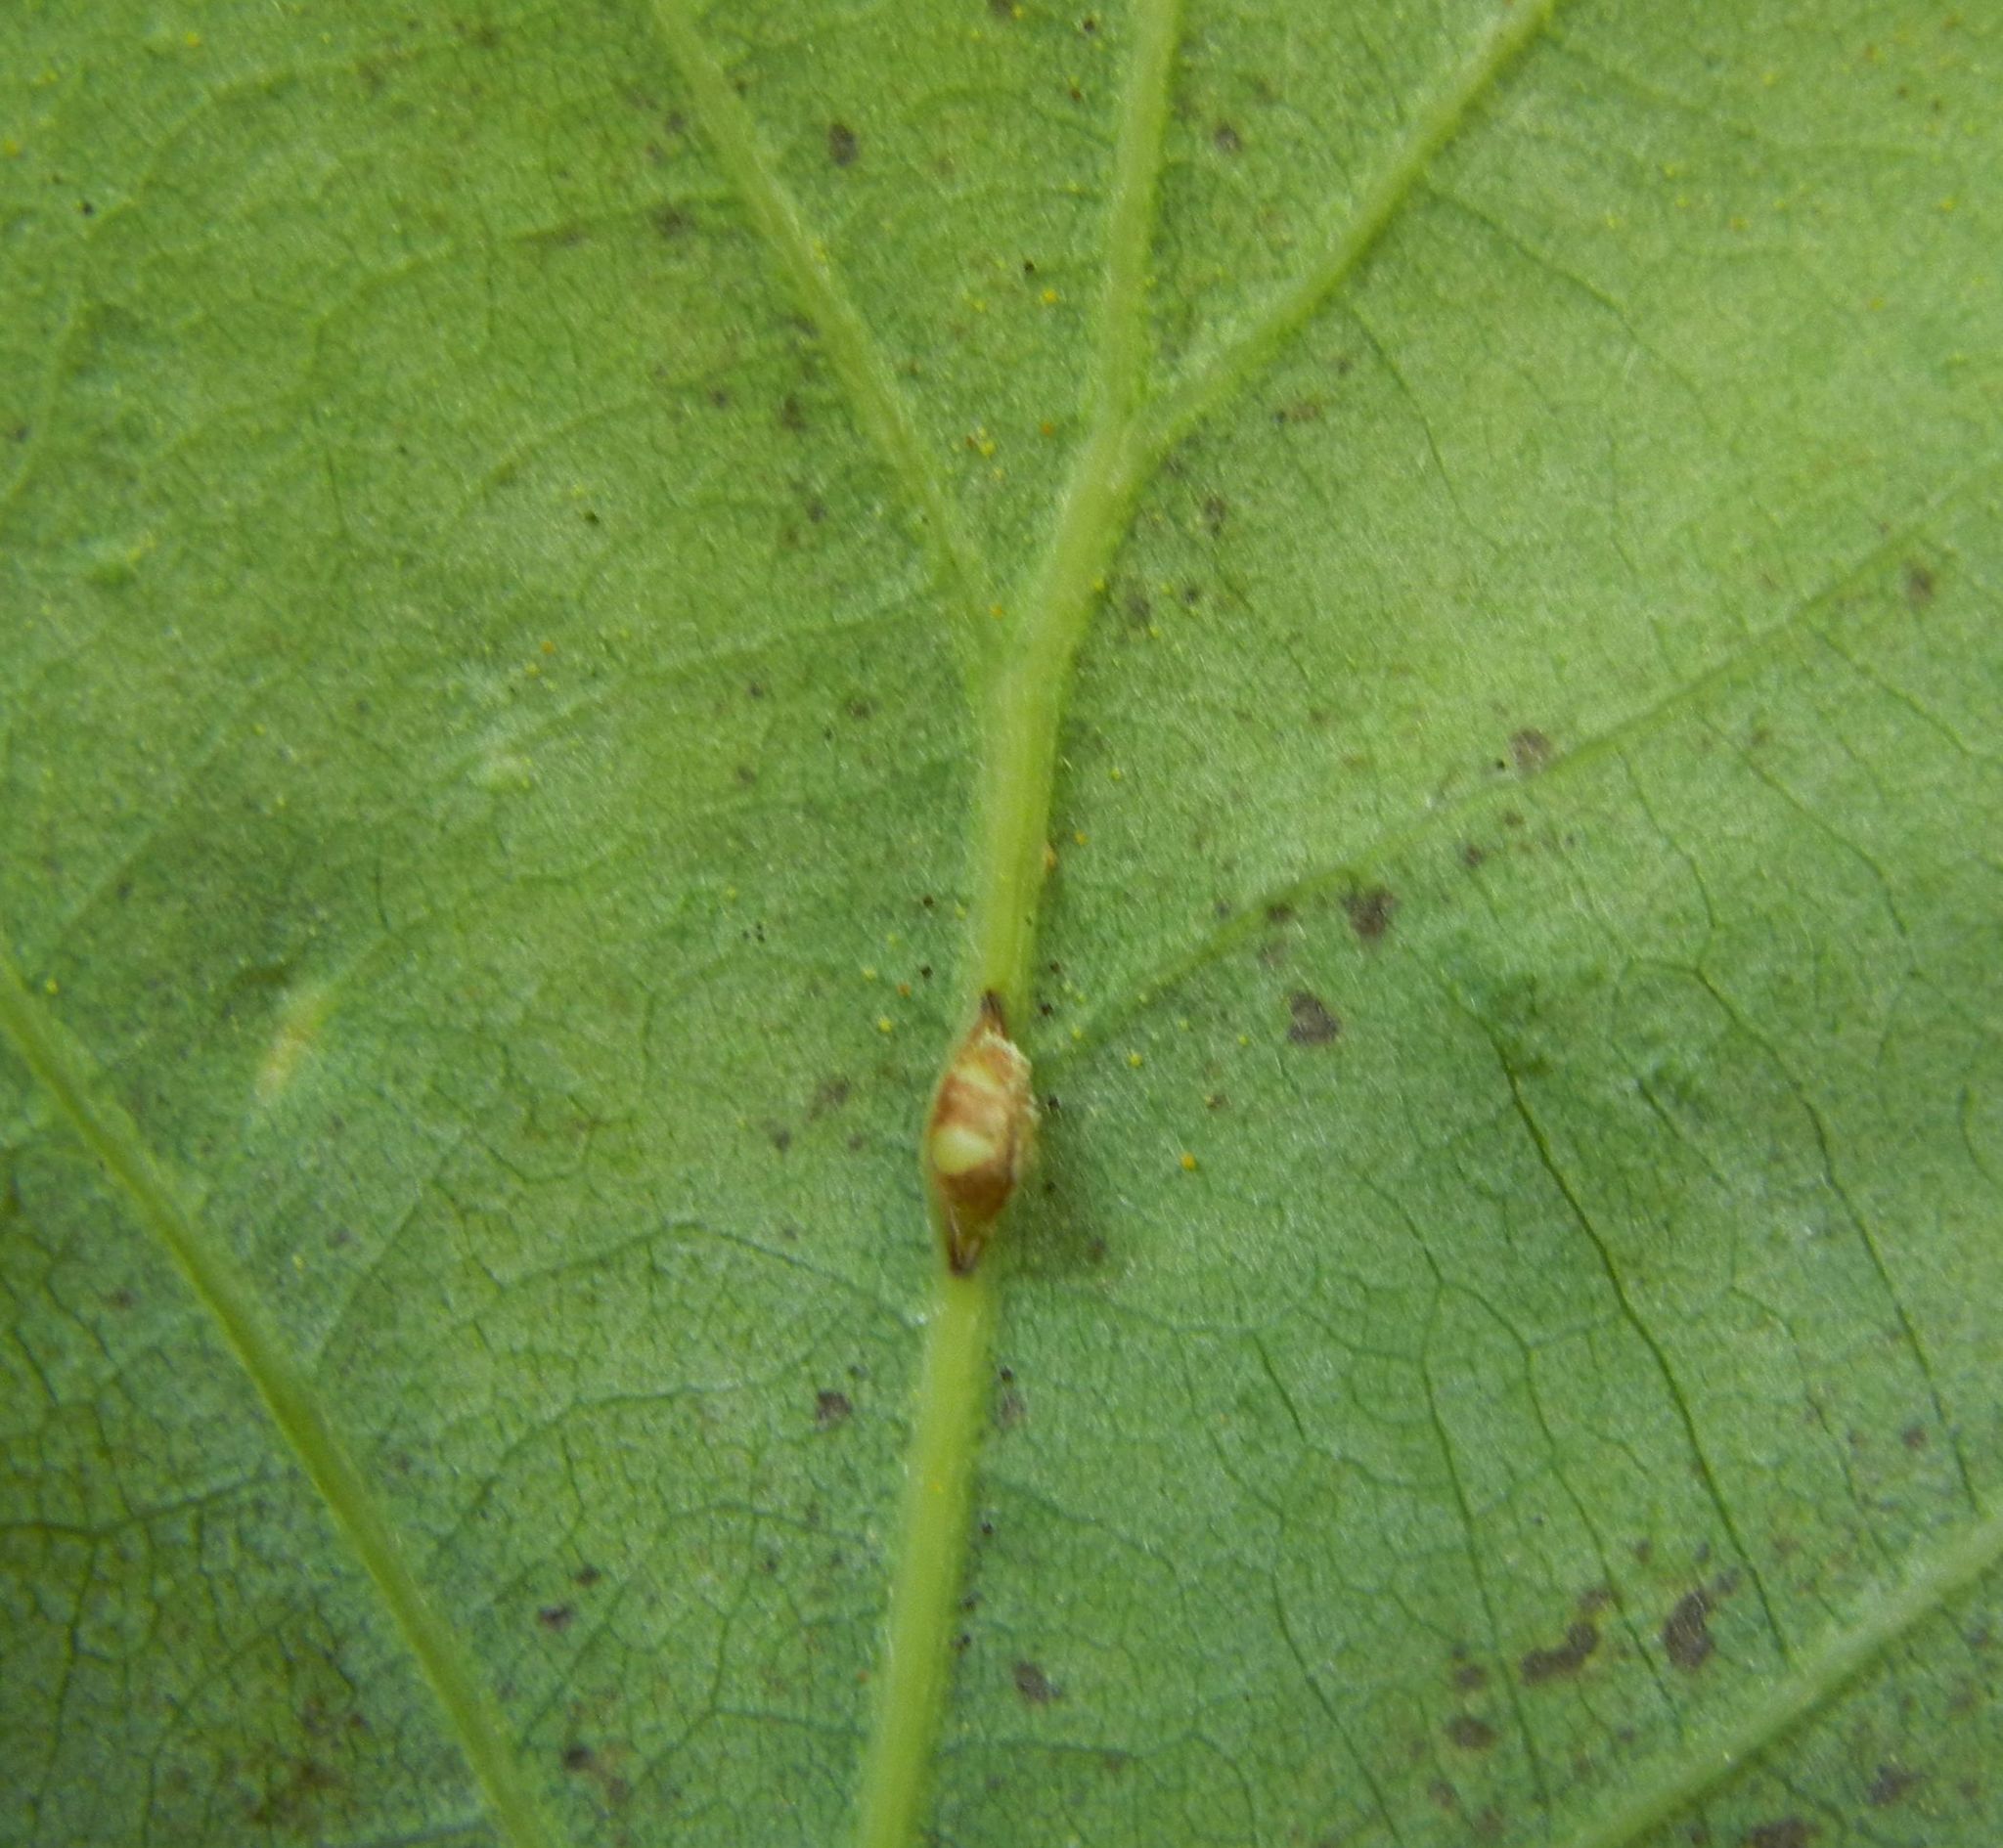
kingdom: Animalia
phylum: Arthropoda
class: Insecta
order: Hymenoptera
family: Cynipidae
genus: Neuroterus
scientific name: Neuroterus saliens
